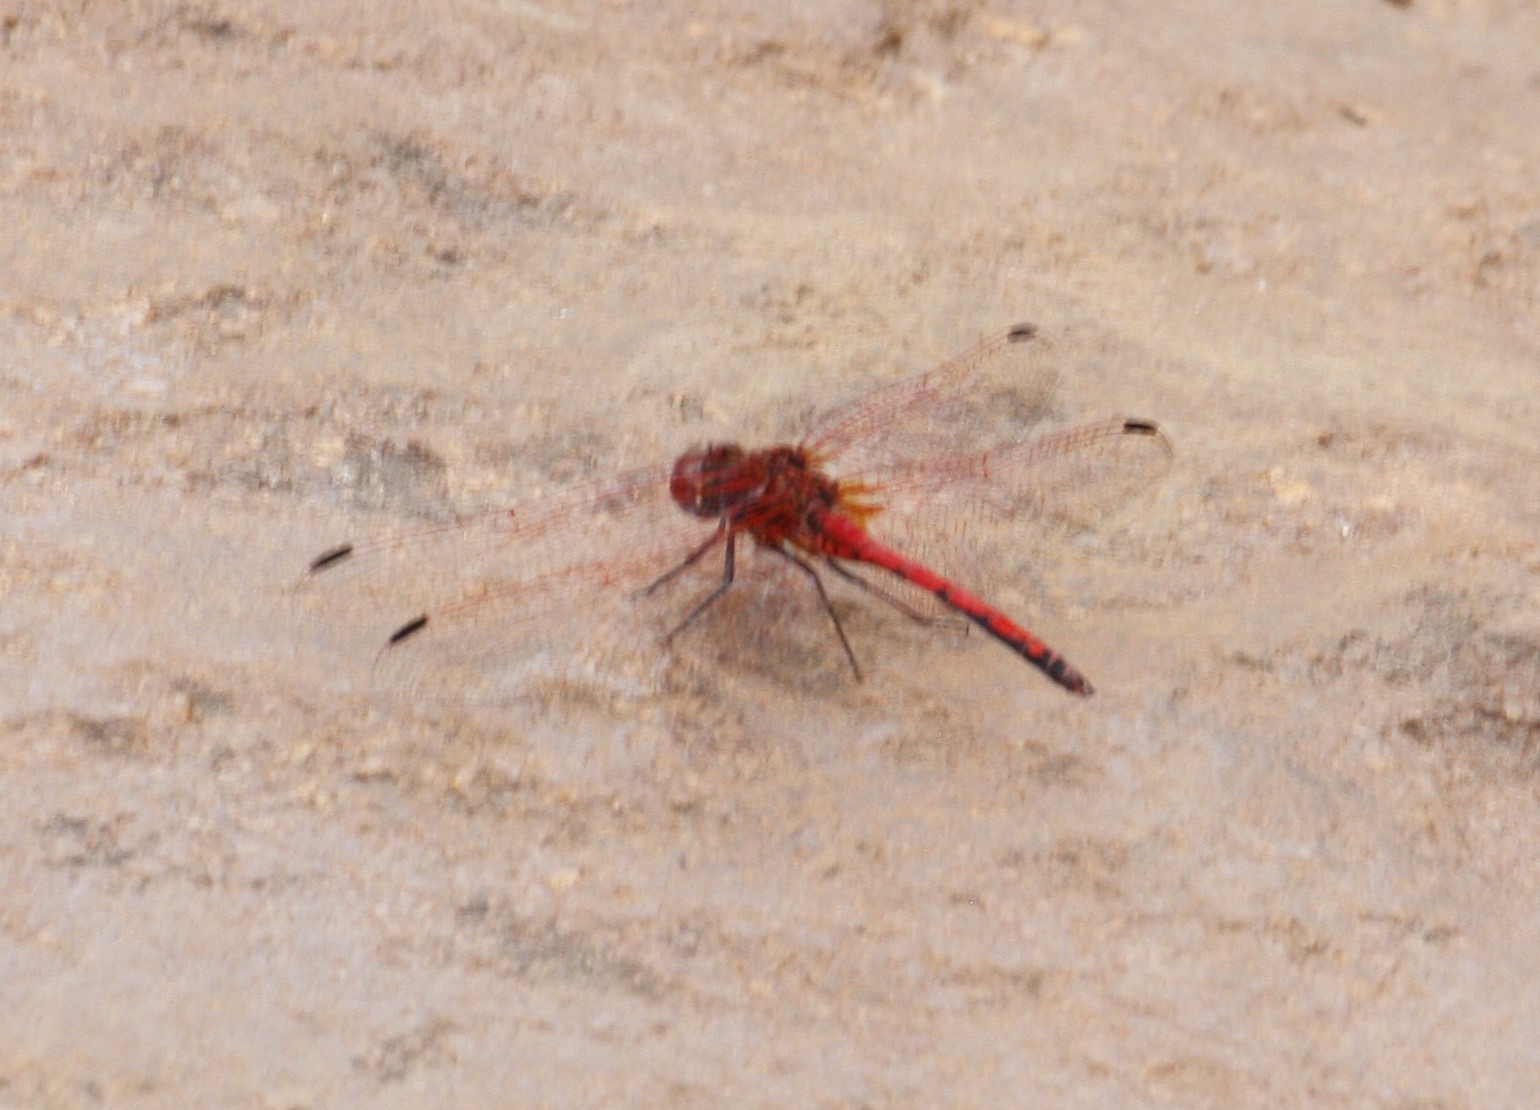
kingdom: Animalia
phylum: Arthropoda
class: Insecta
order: Odonata
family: Libellulidae
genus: Trithemis
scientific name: Trithemis arteriosa
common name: Red-veined dropwing
